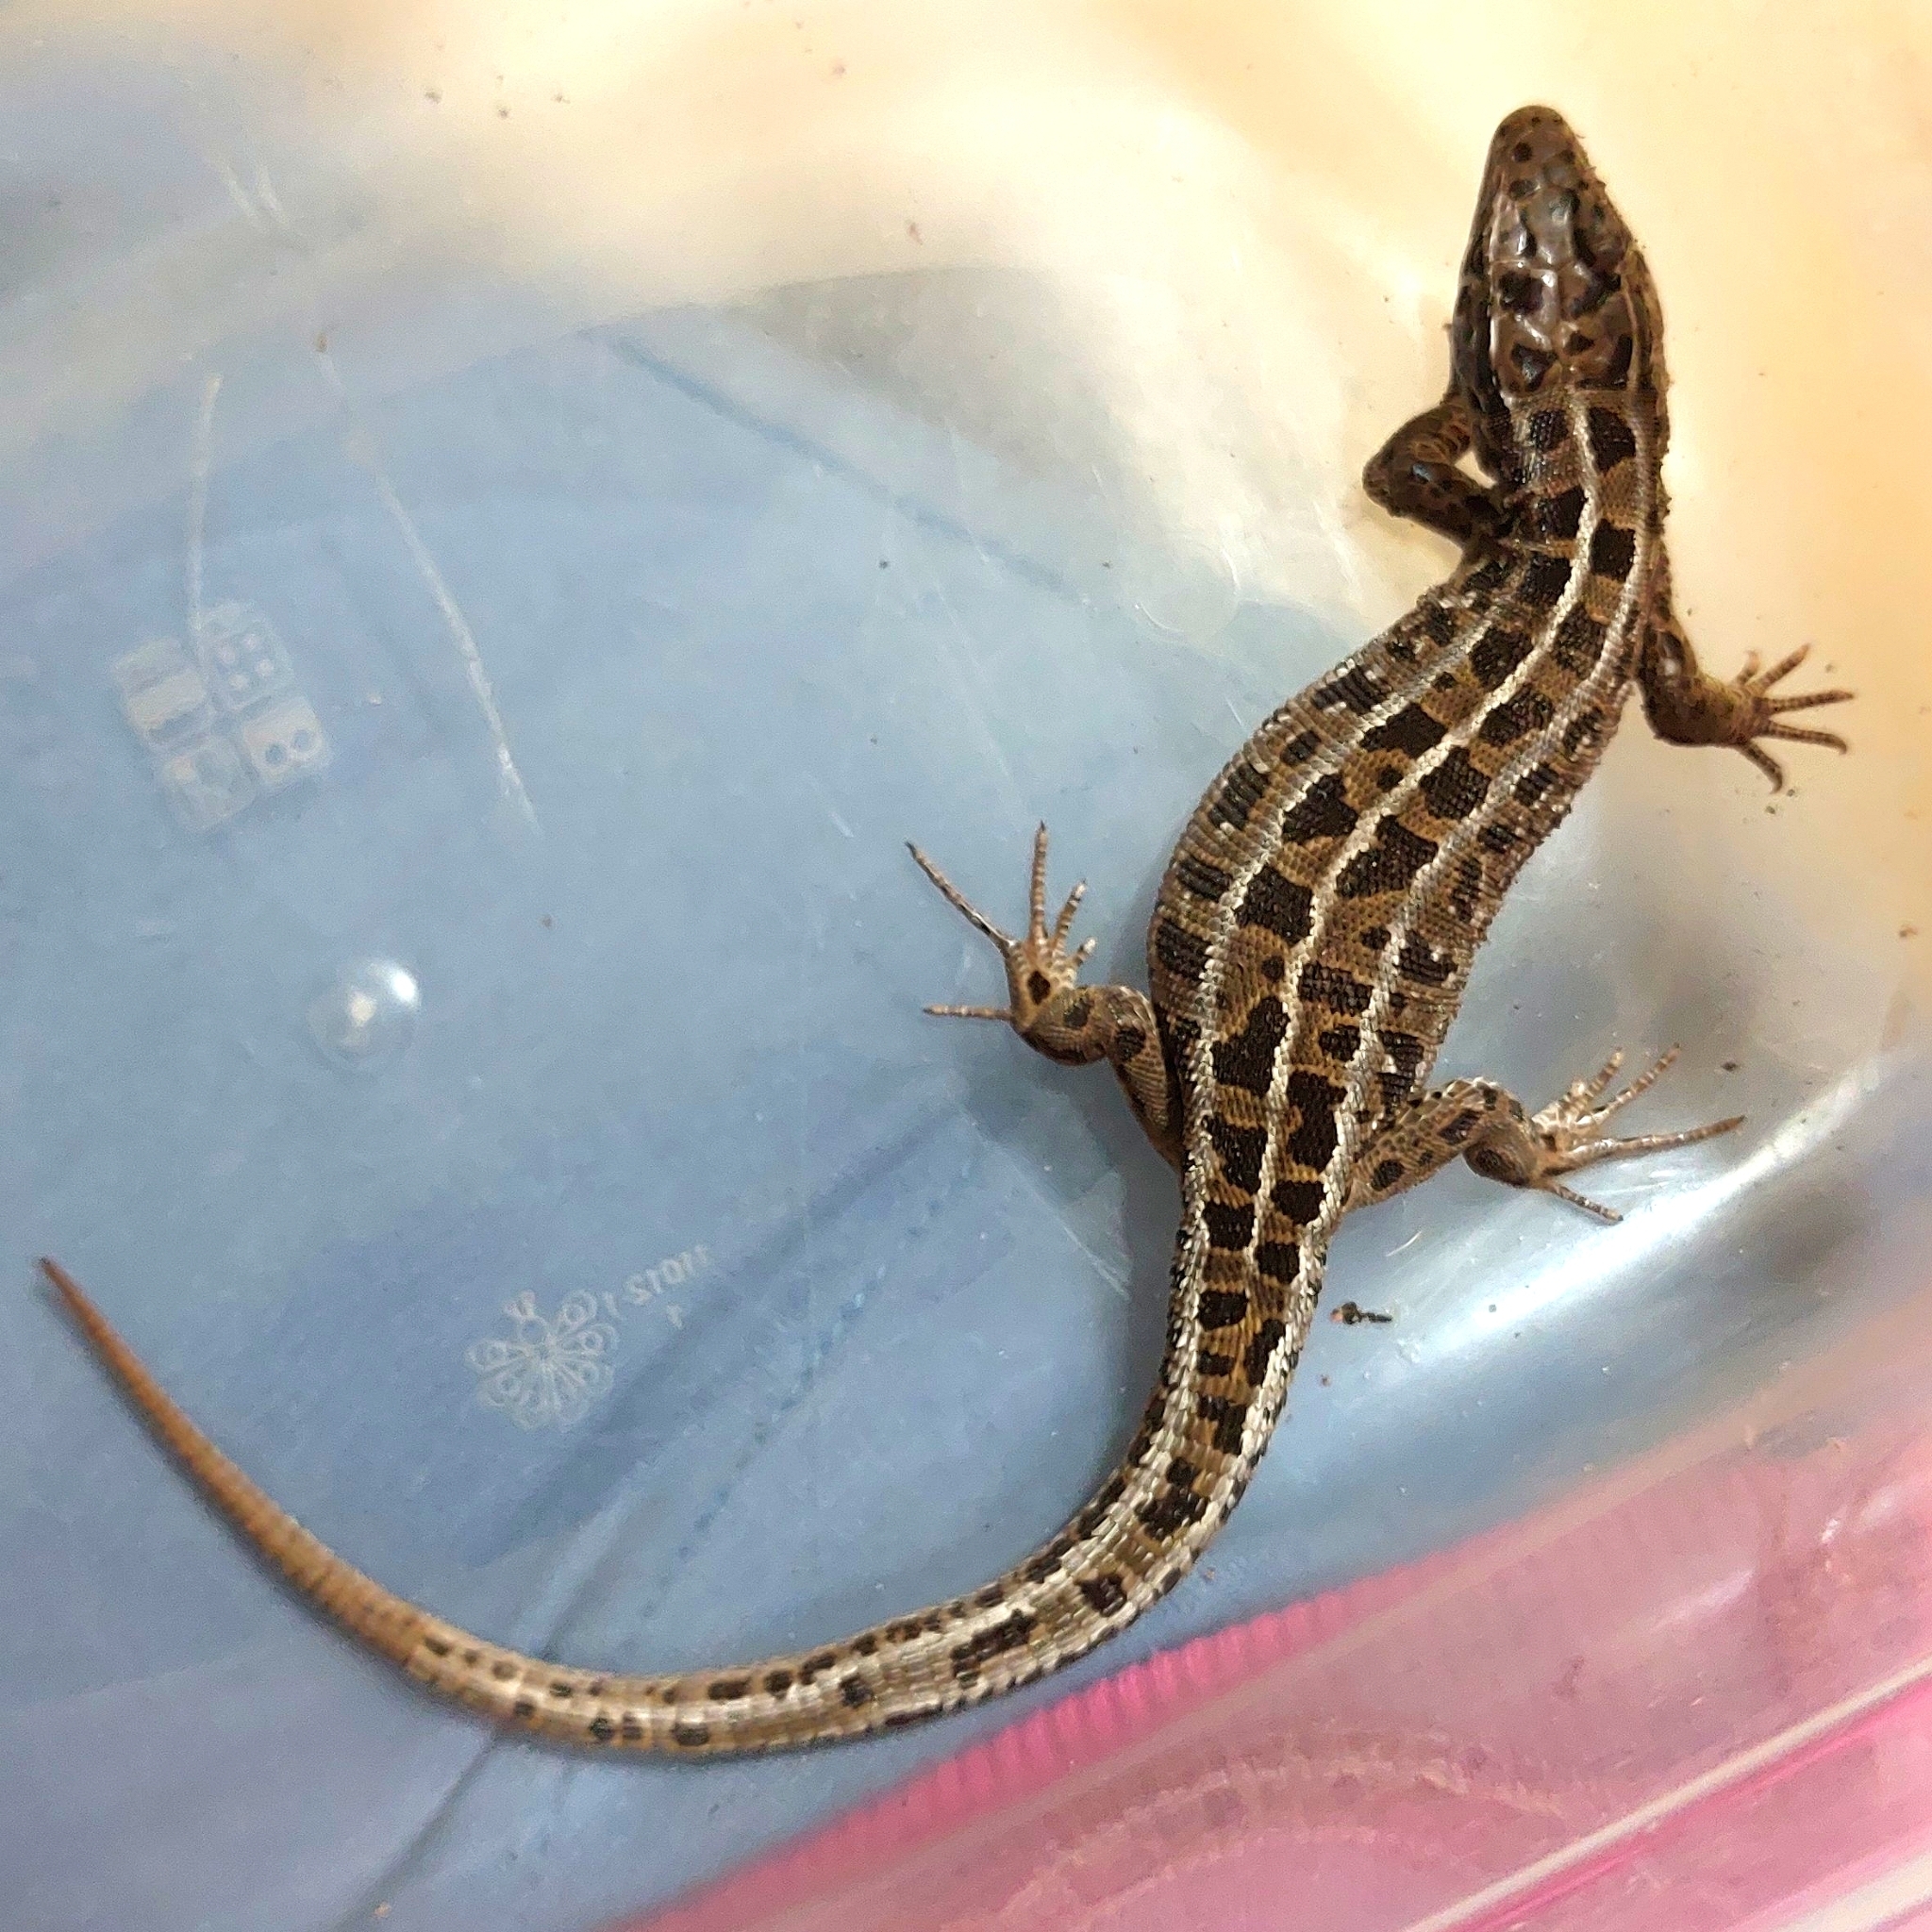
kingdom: Animalia
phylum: Chordata
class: Squamata
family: Lacertidae
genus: Lacerta
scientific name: Lacerta agilis
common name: Sand lizard
